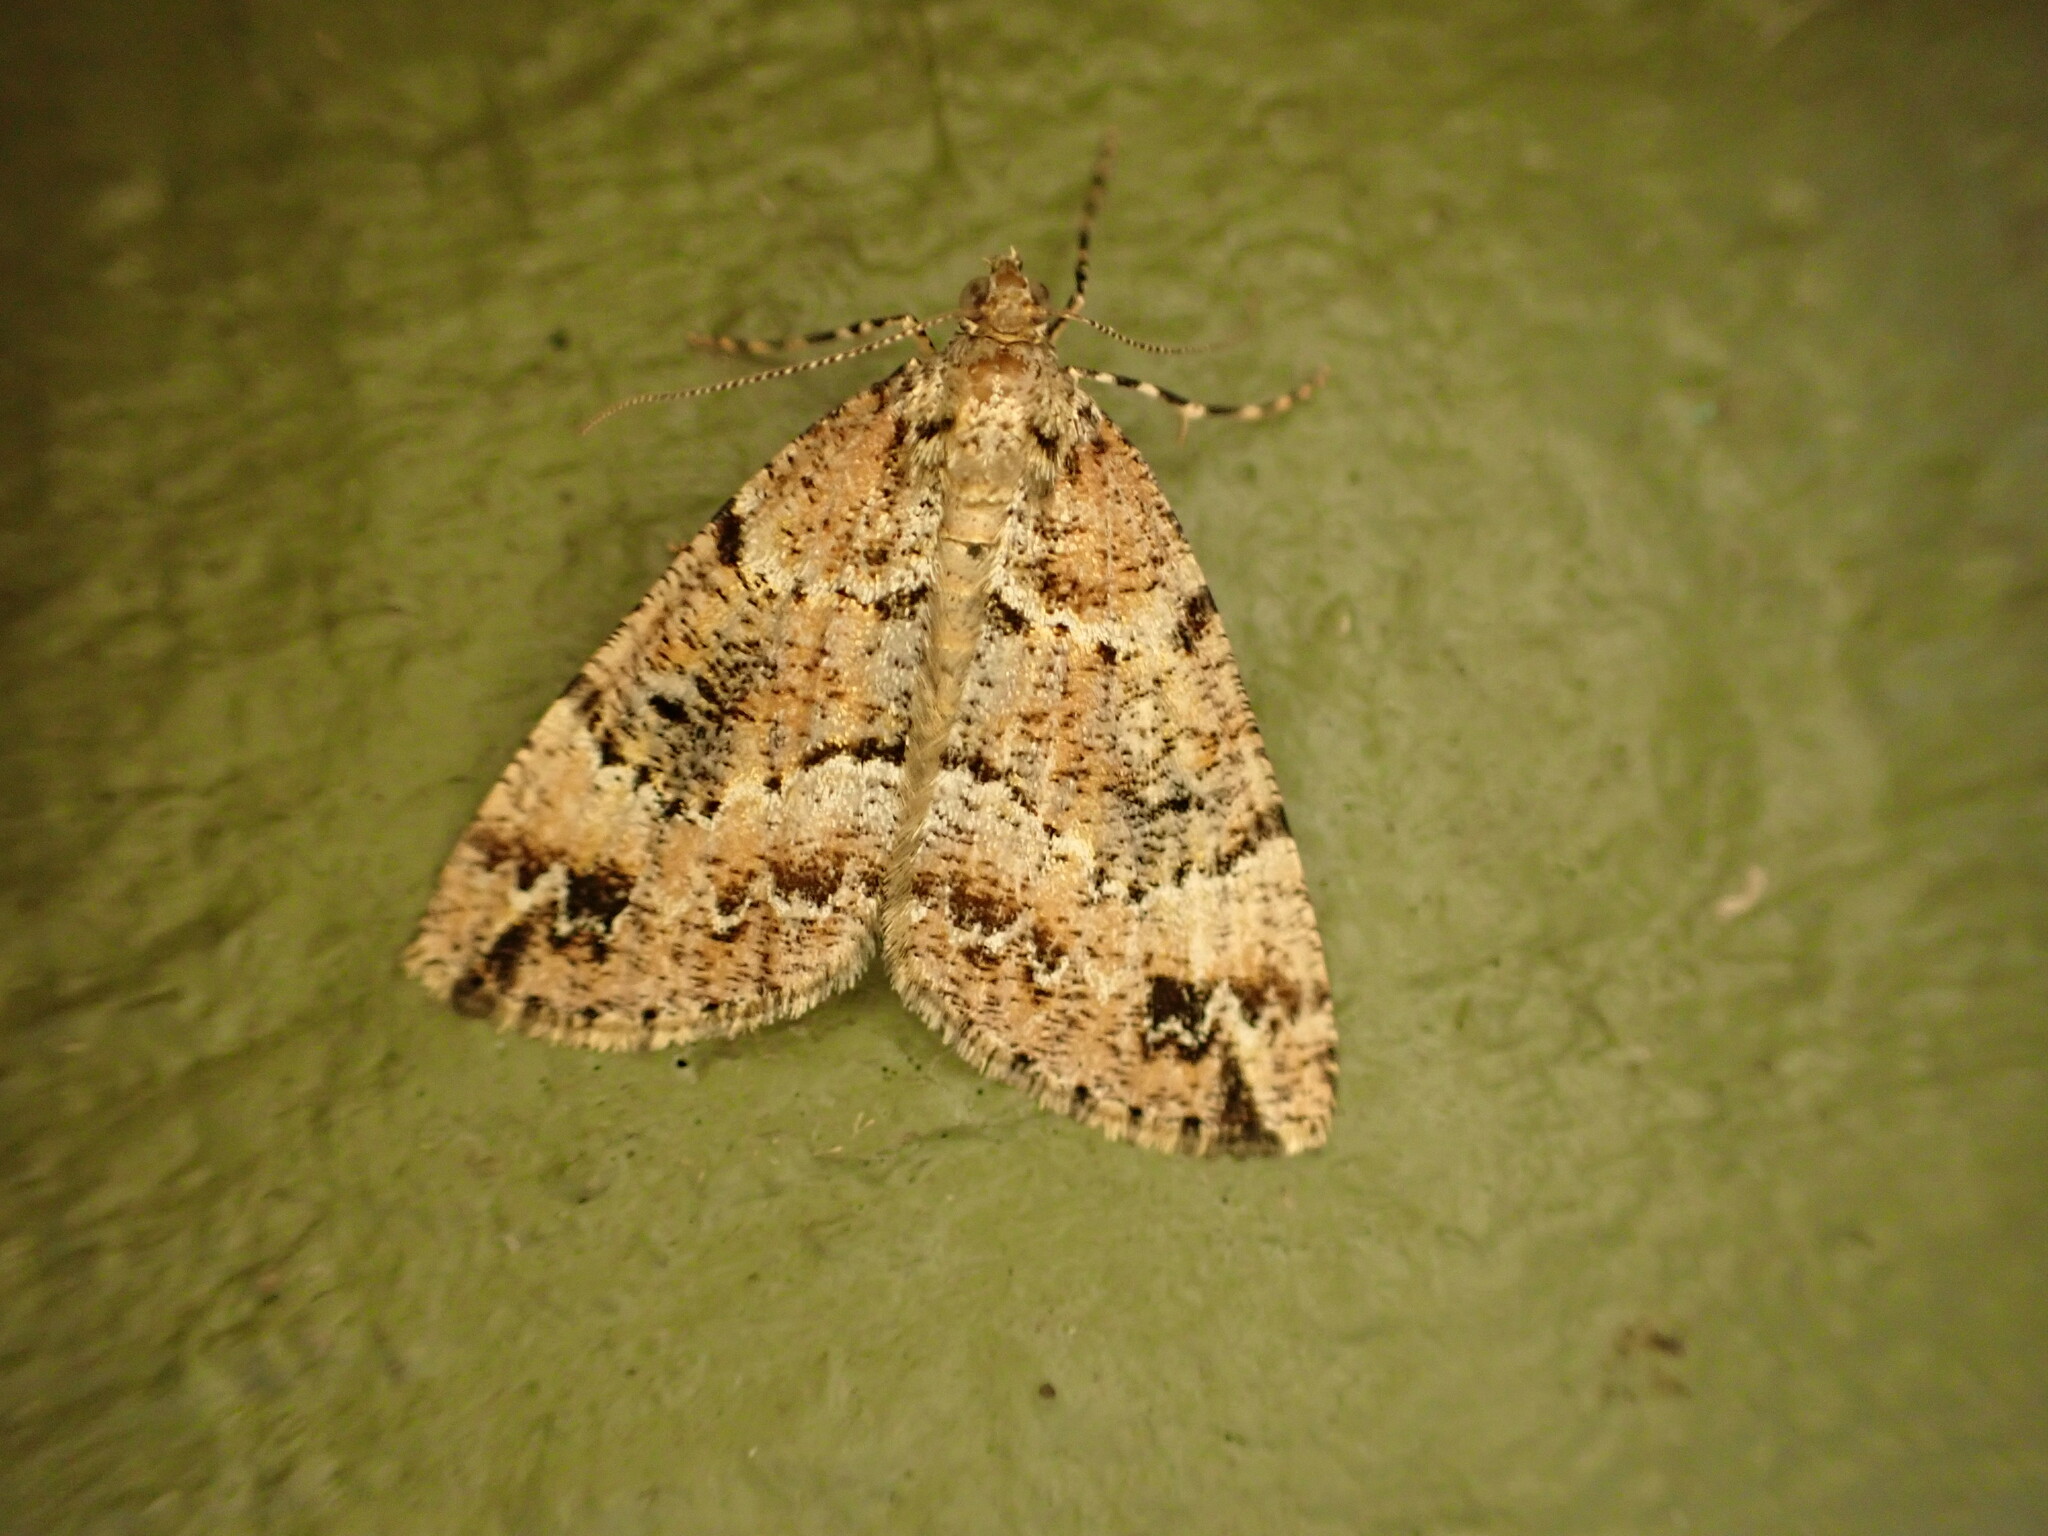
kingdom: Animalia
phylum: Arthropoda
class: Insecta
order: Lepidoptera
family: Geometridae
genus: Pseudocoremia
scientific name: Pseudocoremia productata
